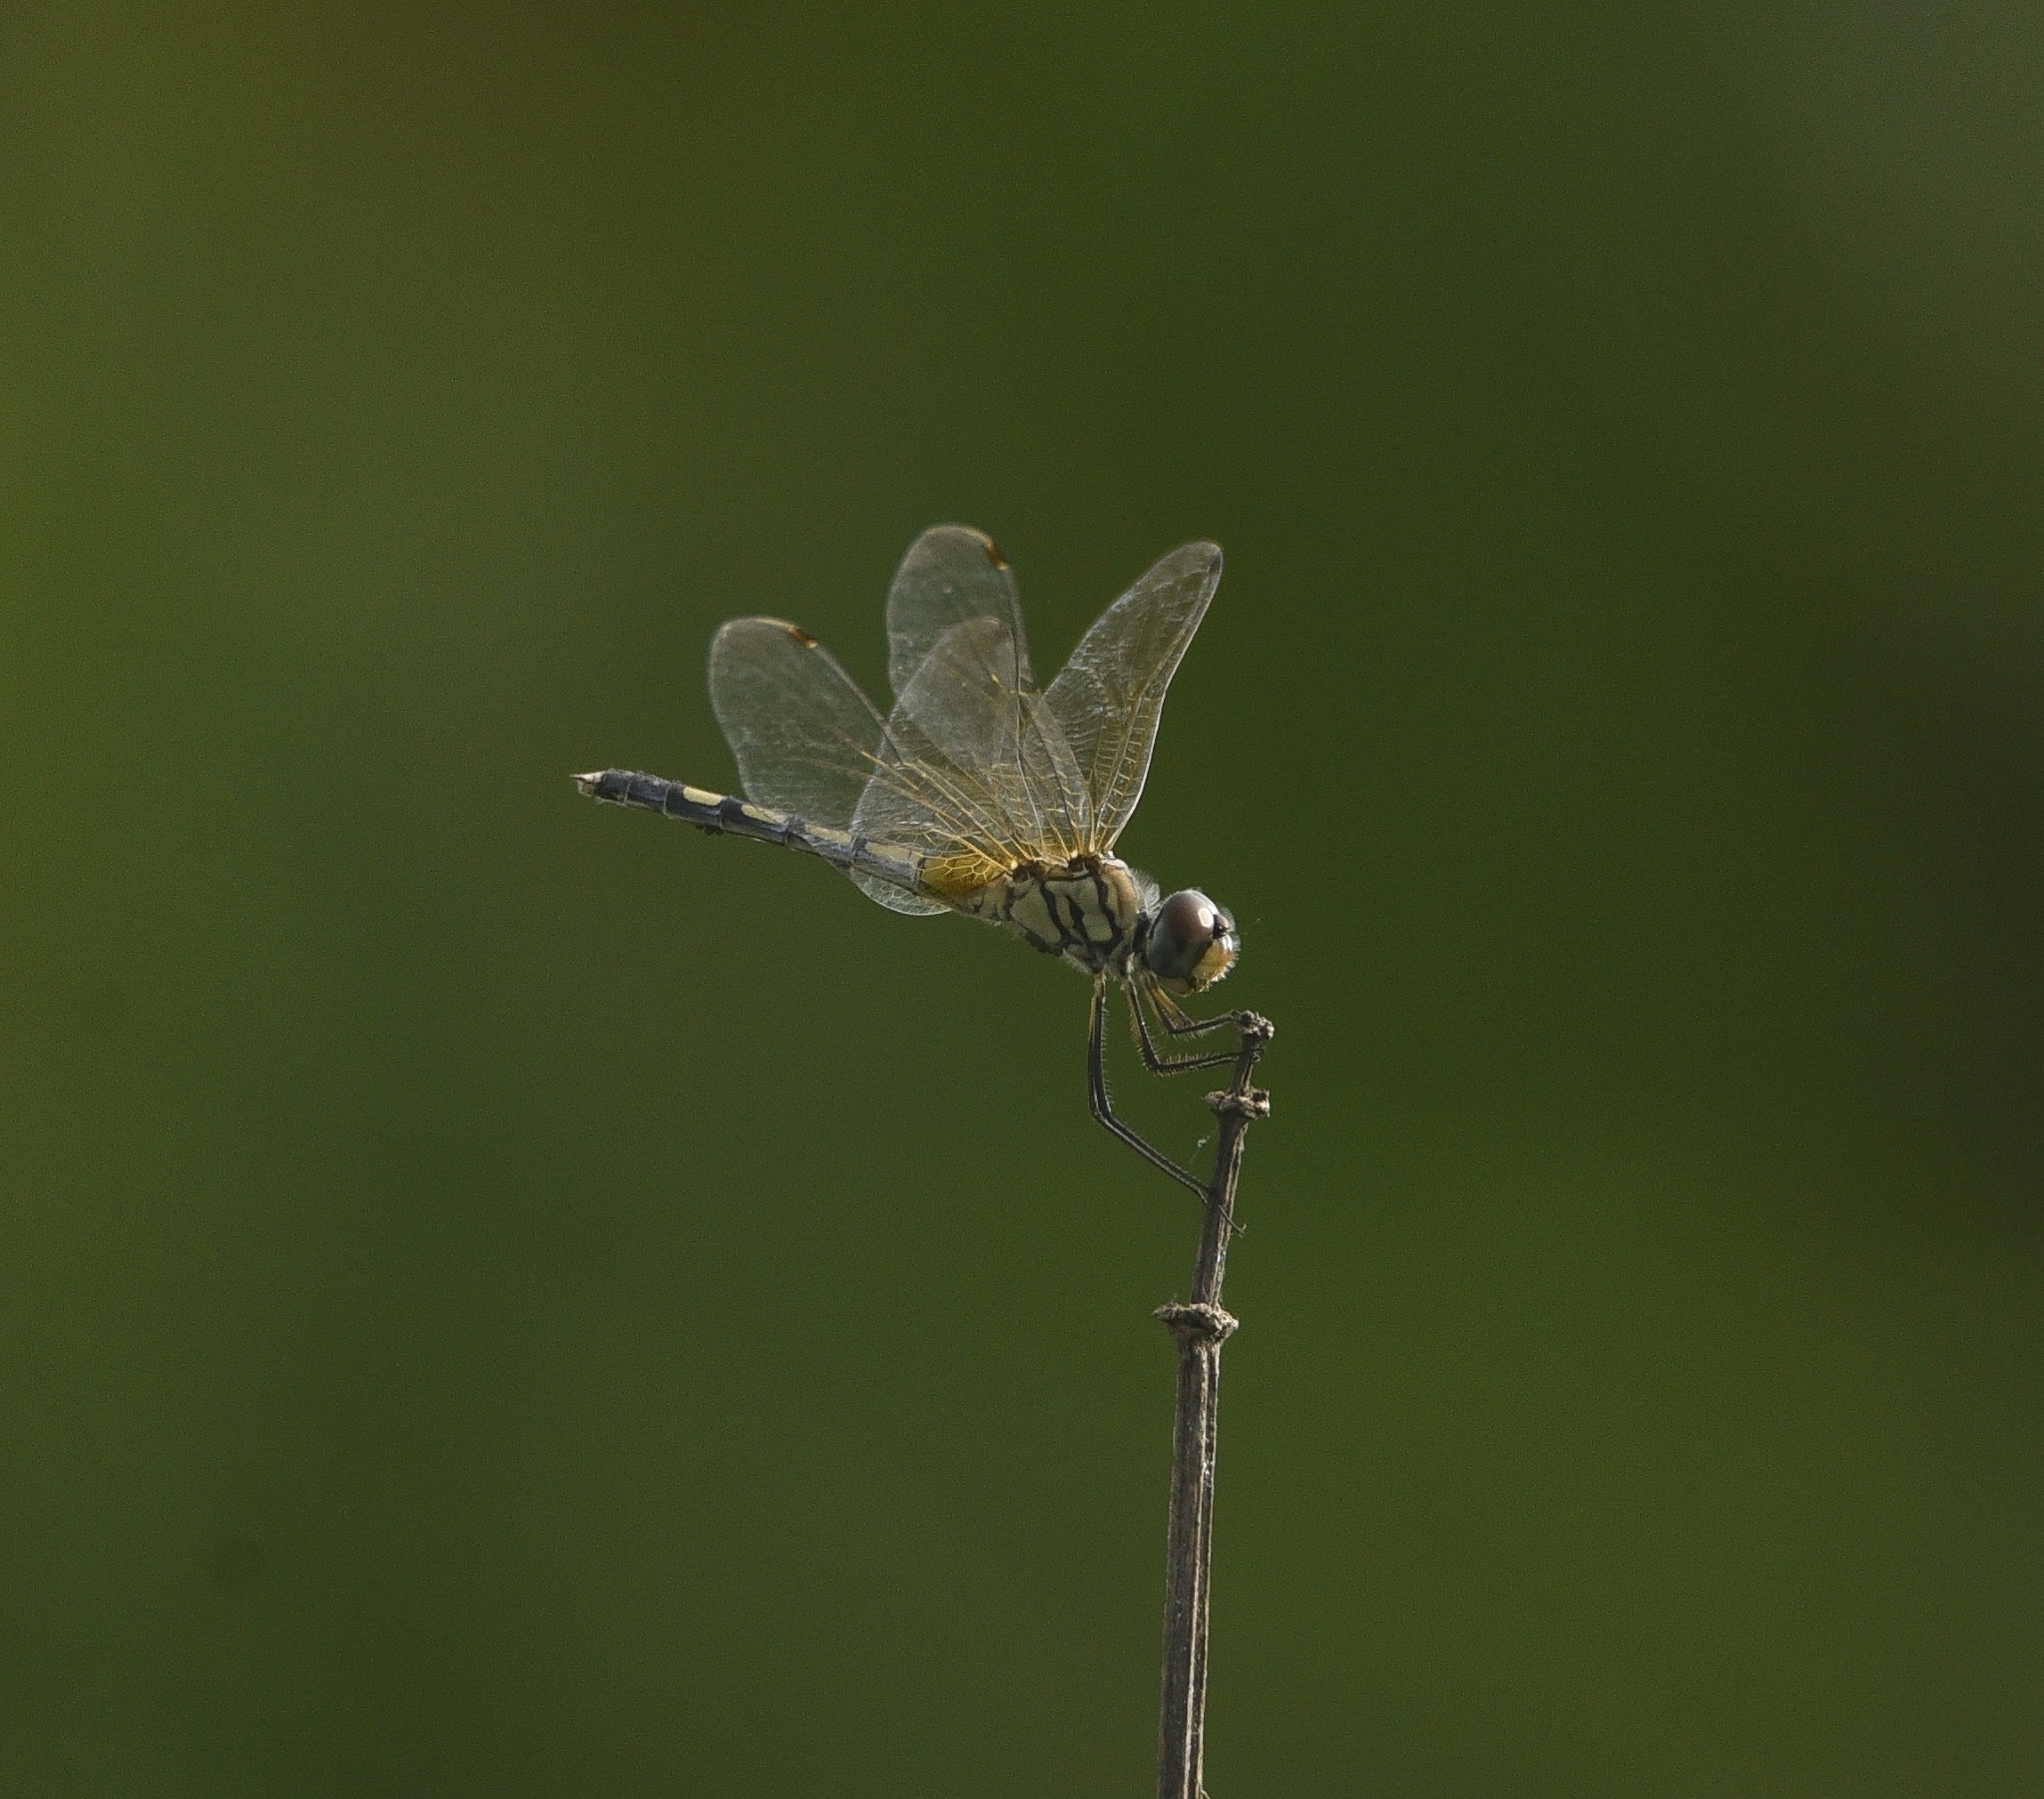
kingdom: Animalia
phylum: Arthropoda
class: Insecta
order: Odonata
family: Libellulidae
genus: Trithemis
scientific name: Trithemis pallidinervis
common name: Dancing dropwing
